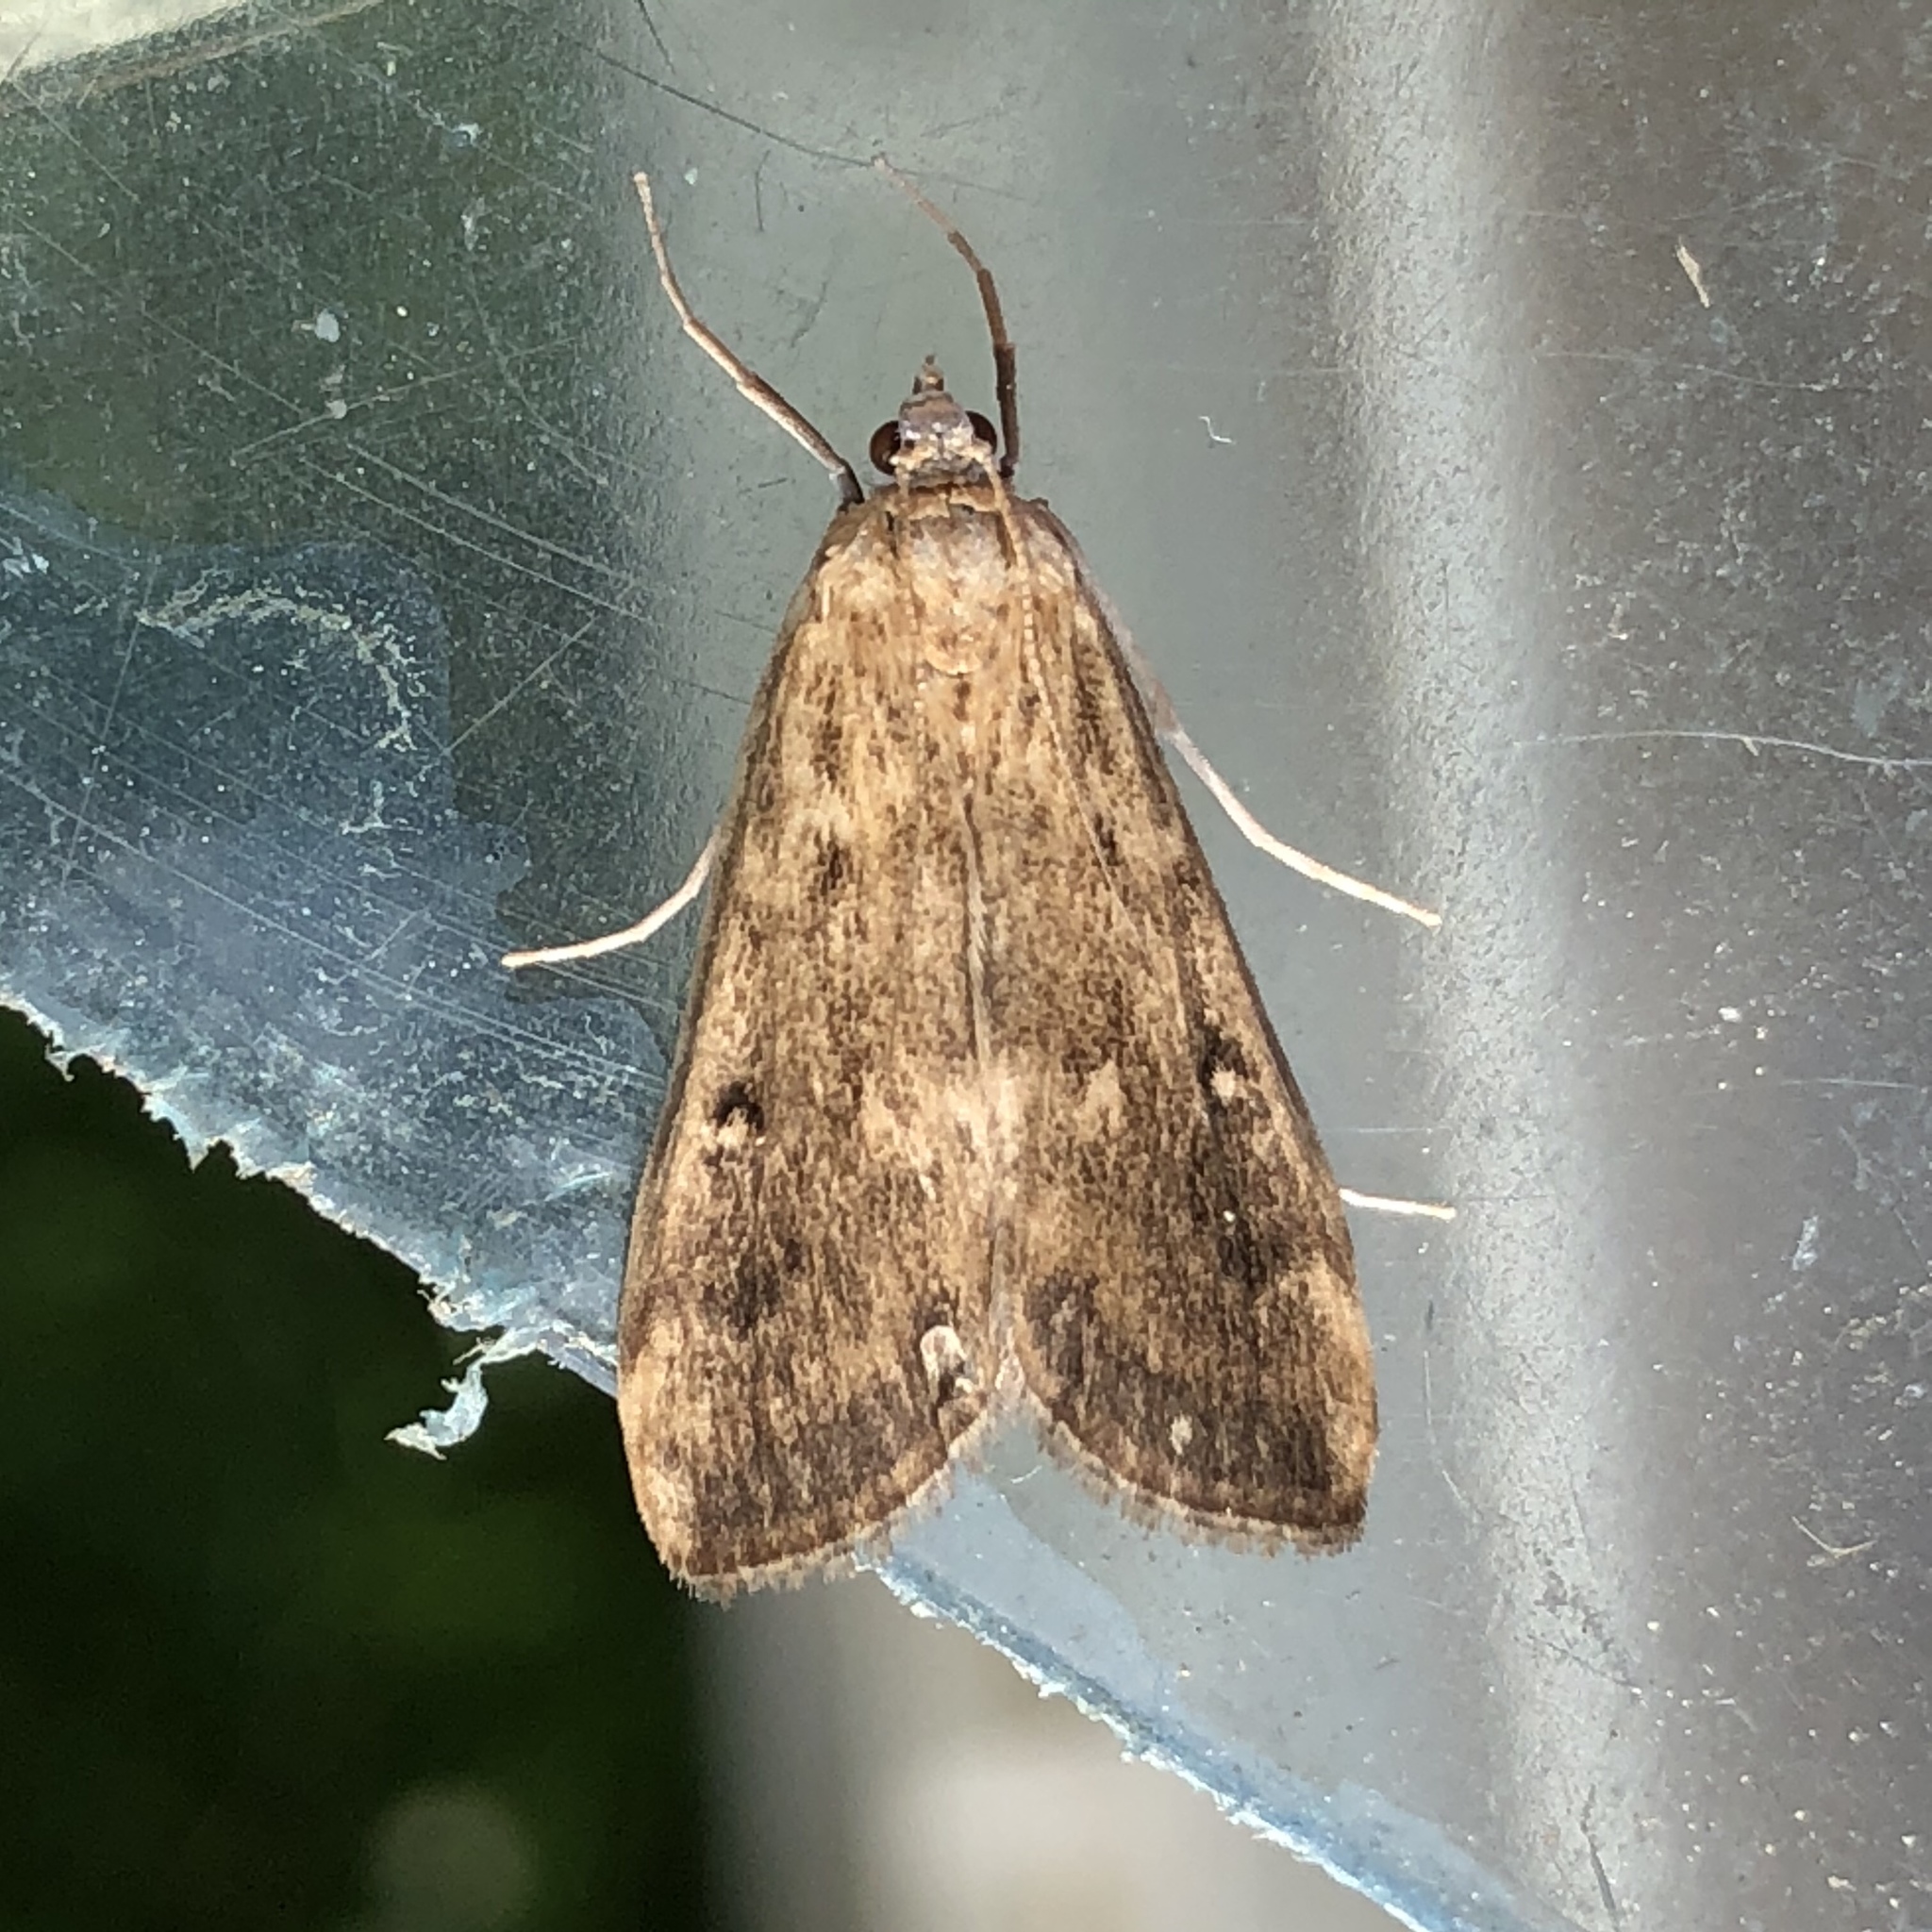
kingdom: Animalia
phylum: Arthropoda
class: Insecta
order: Lepidoptera
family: Crambidae
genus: Parapoynx
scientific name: Parapoynx stratiotata
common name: Ringed china-mark
